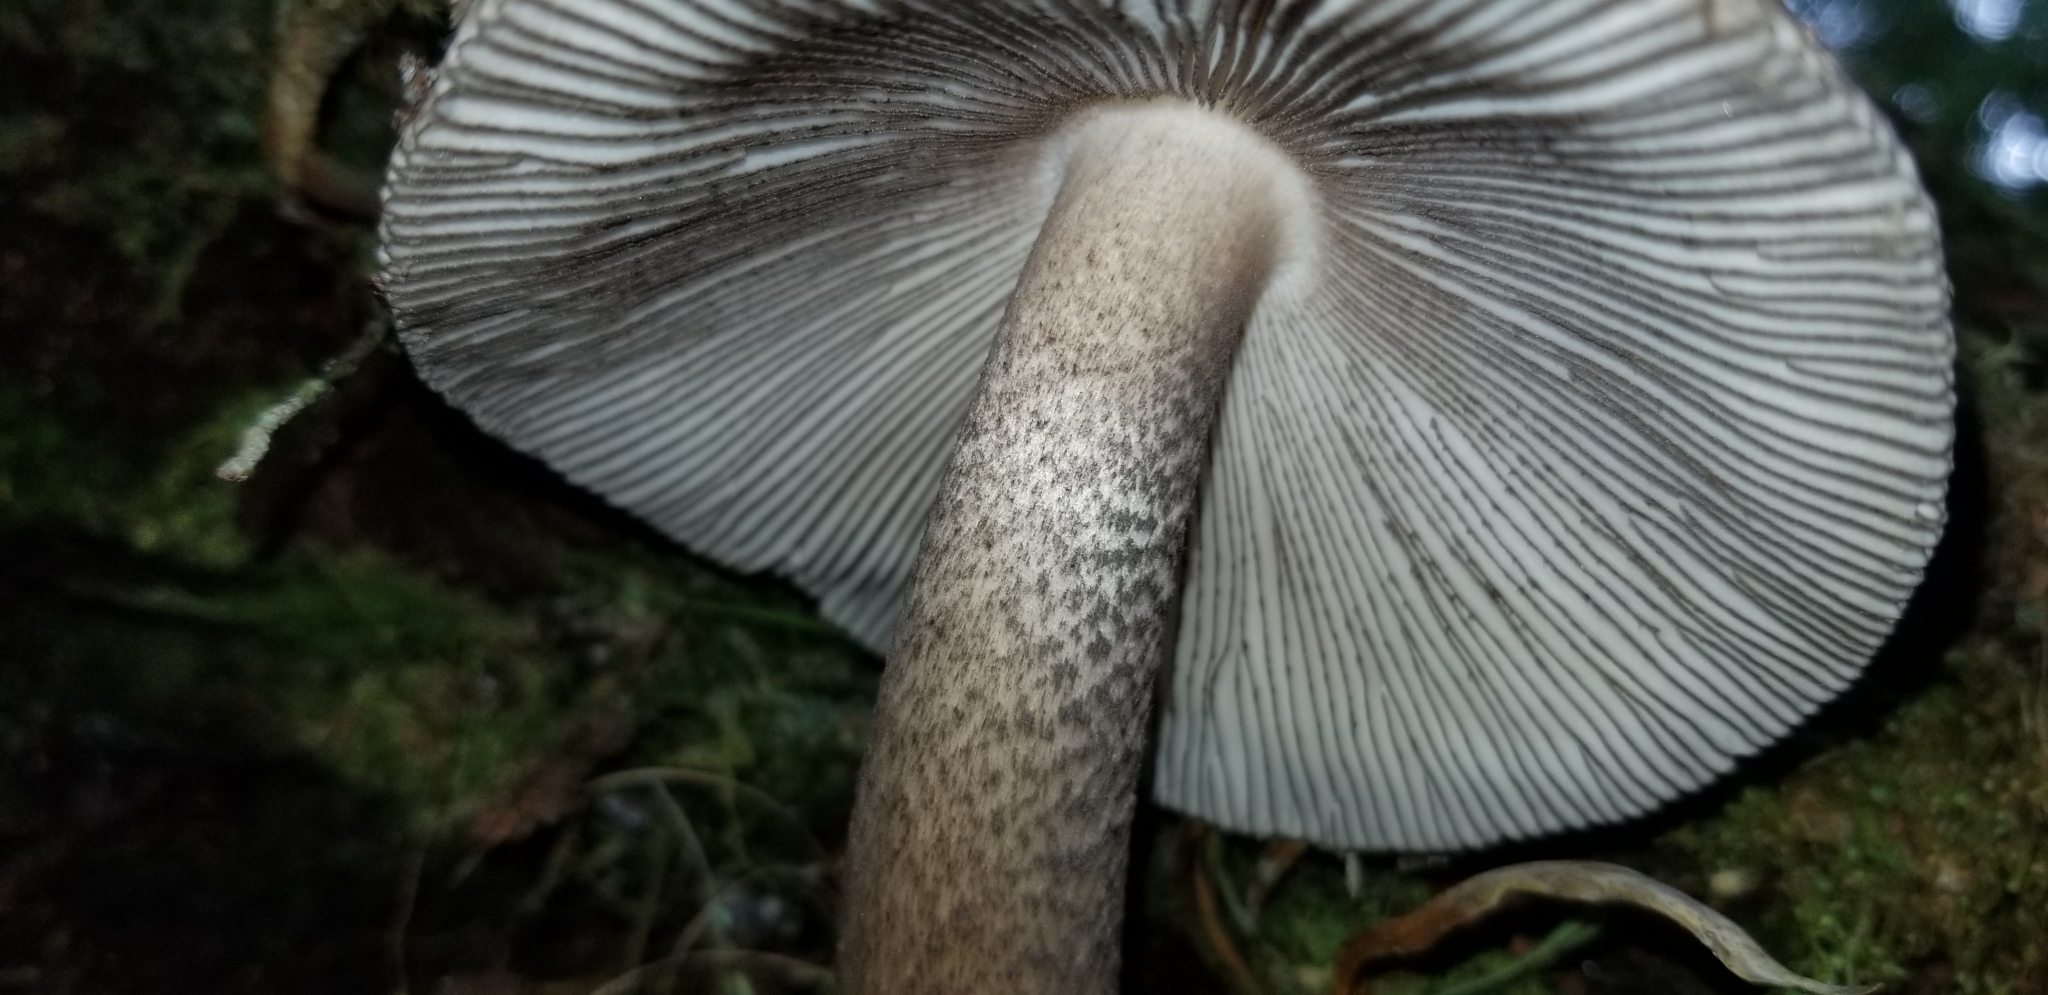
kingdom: Fungi
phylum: Basidiomycota
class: Agaricomycetes
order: Agaricales
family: Amanitaceae
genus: Amanita
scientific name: Amanita pekeoides
